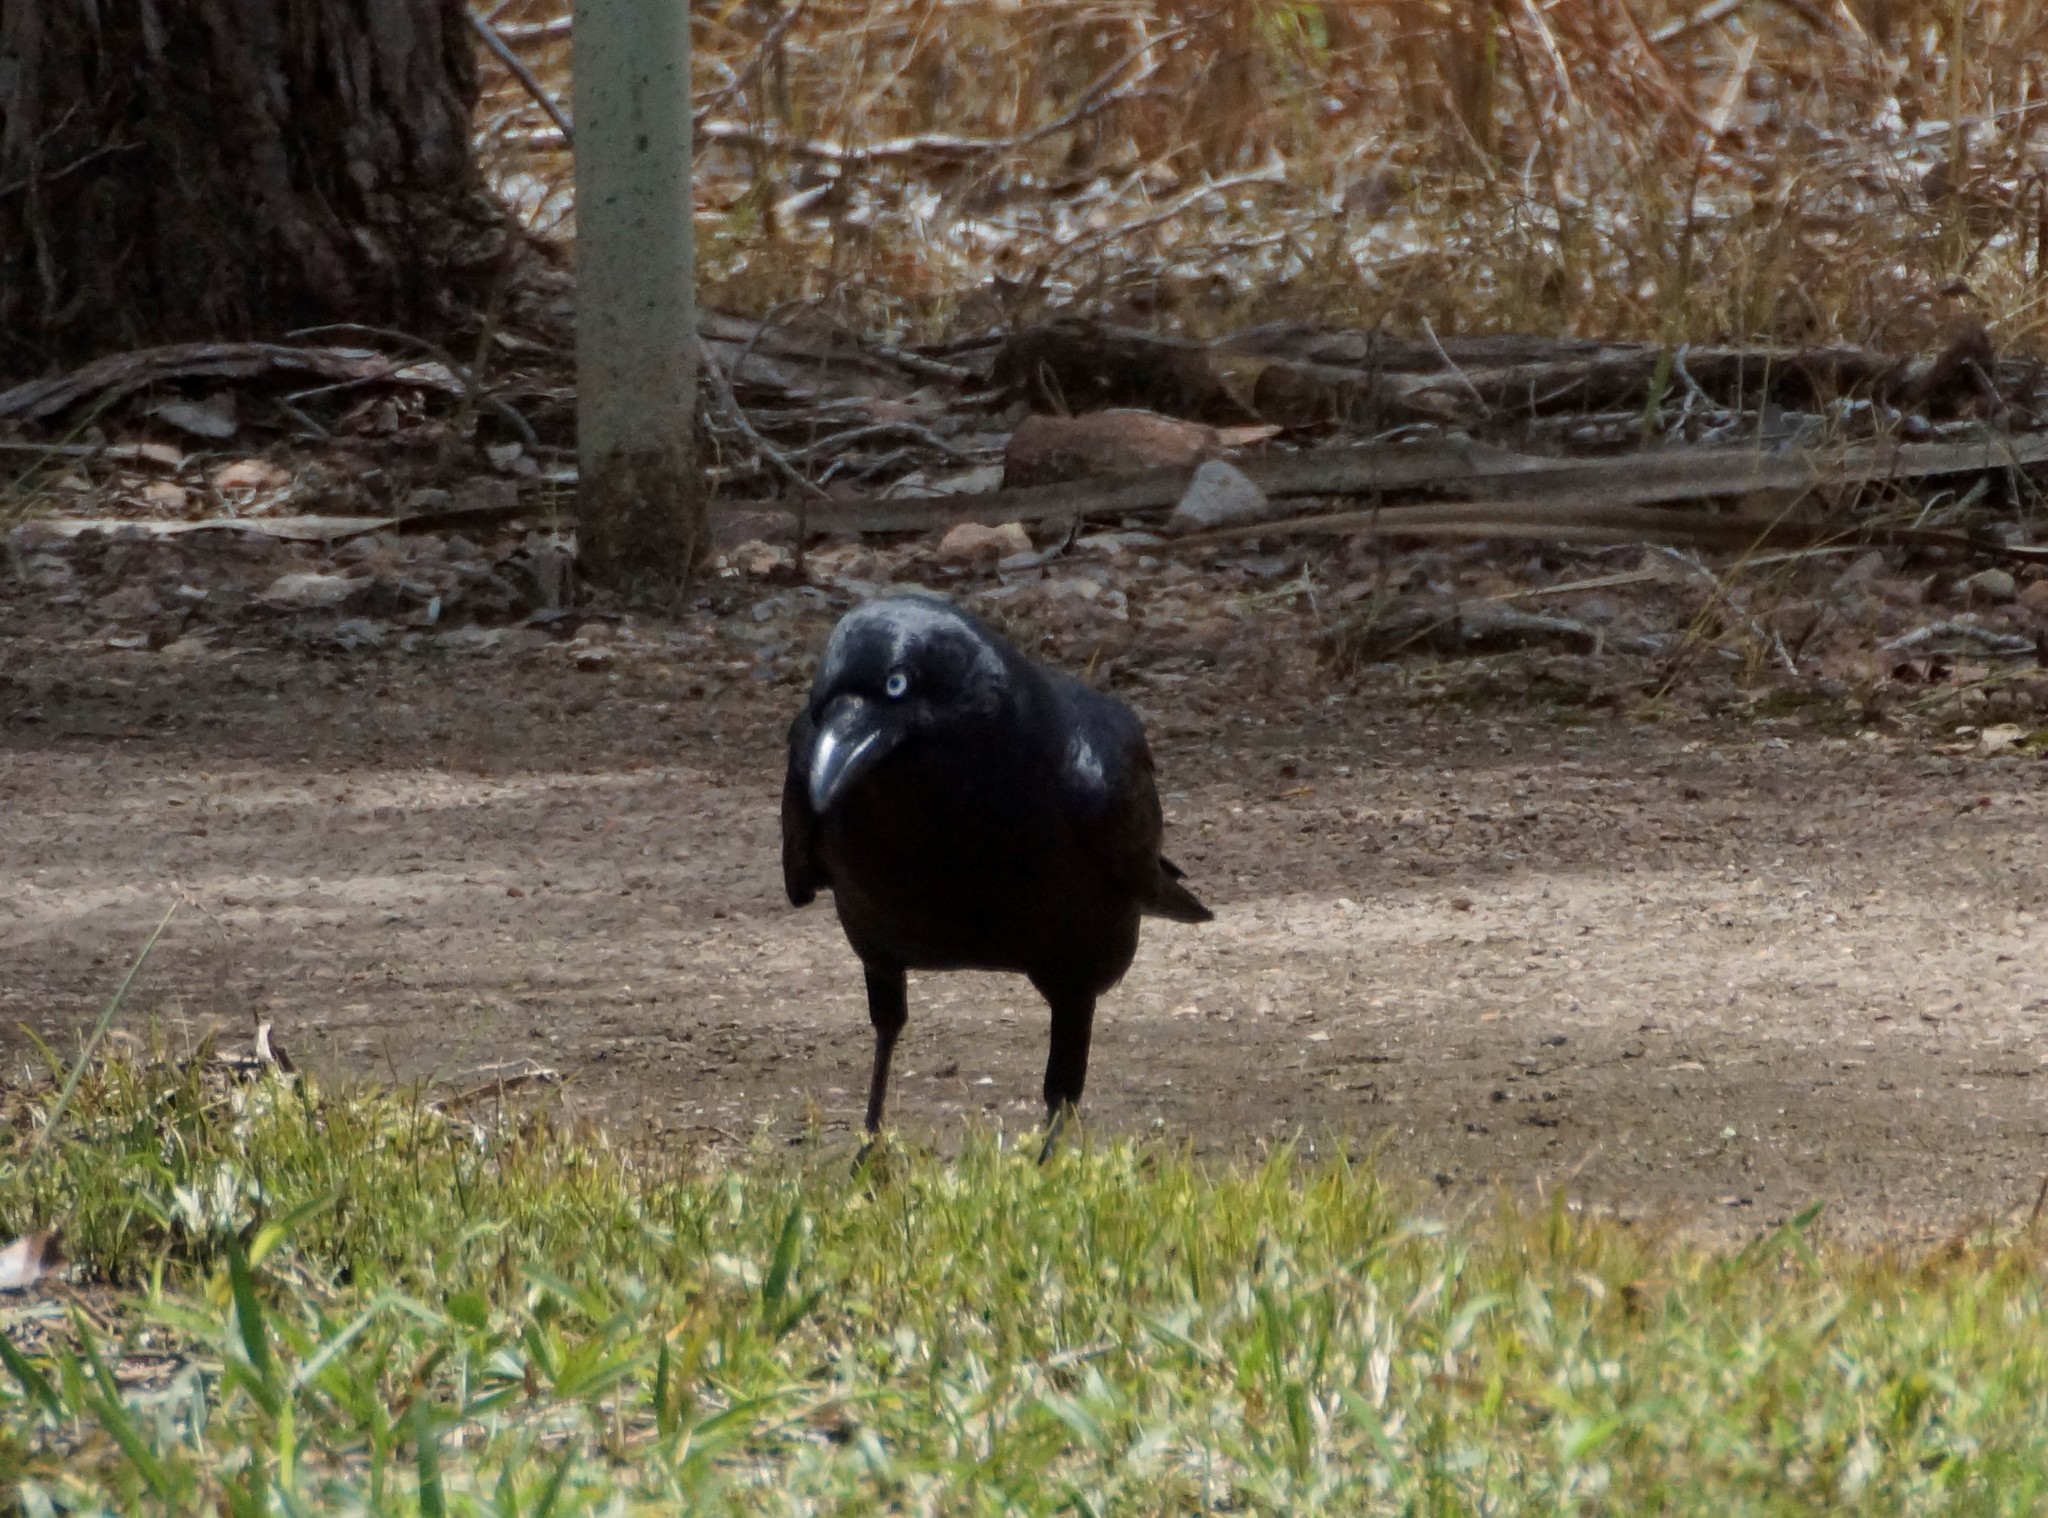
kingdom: Animalia
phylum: Chordata
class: Aves
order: Passeriformes
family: Corvidae
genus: Corvus
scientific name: Corvus orru
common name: Torresian crow
